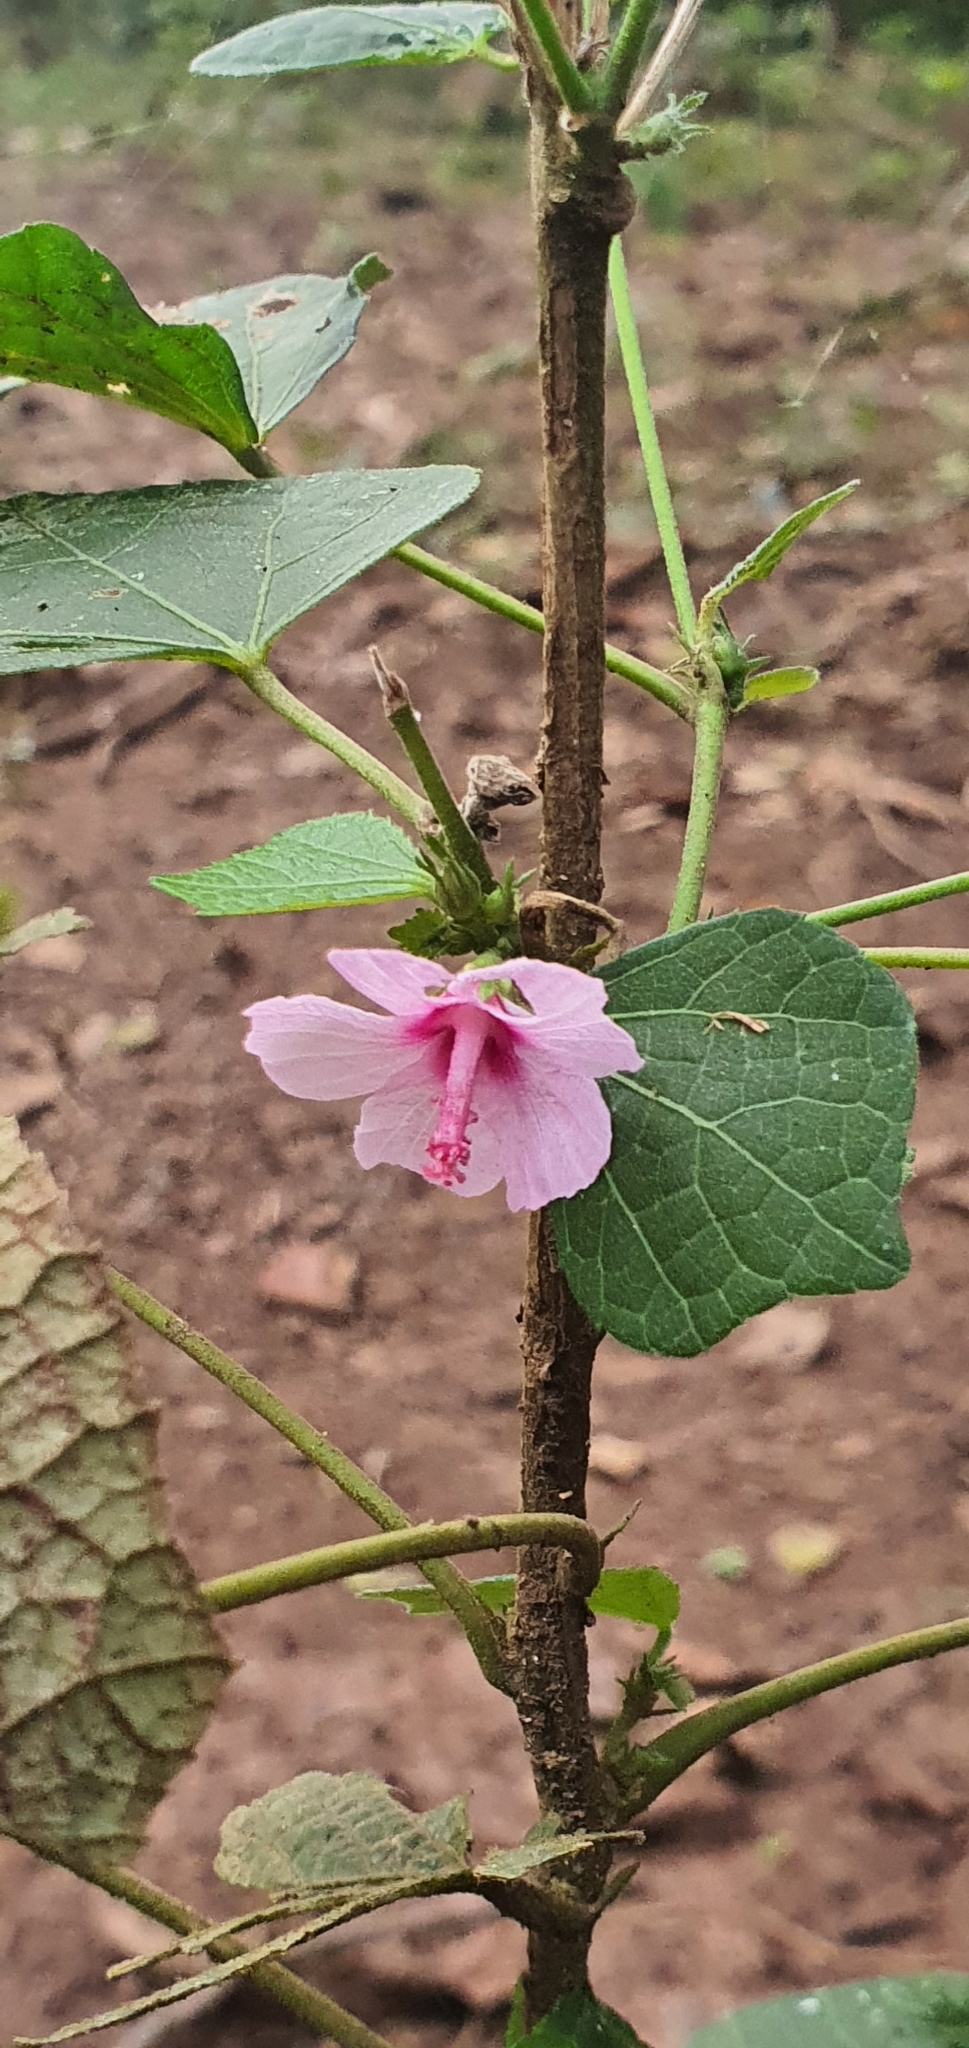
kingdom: Plantae
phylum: Tracheophyta
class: Magnoliopsida
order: Malvales
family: Malvaceae
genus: Urena
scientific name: Urena lobata
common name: Caesarweed
